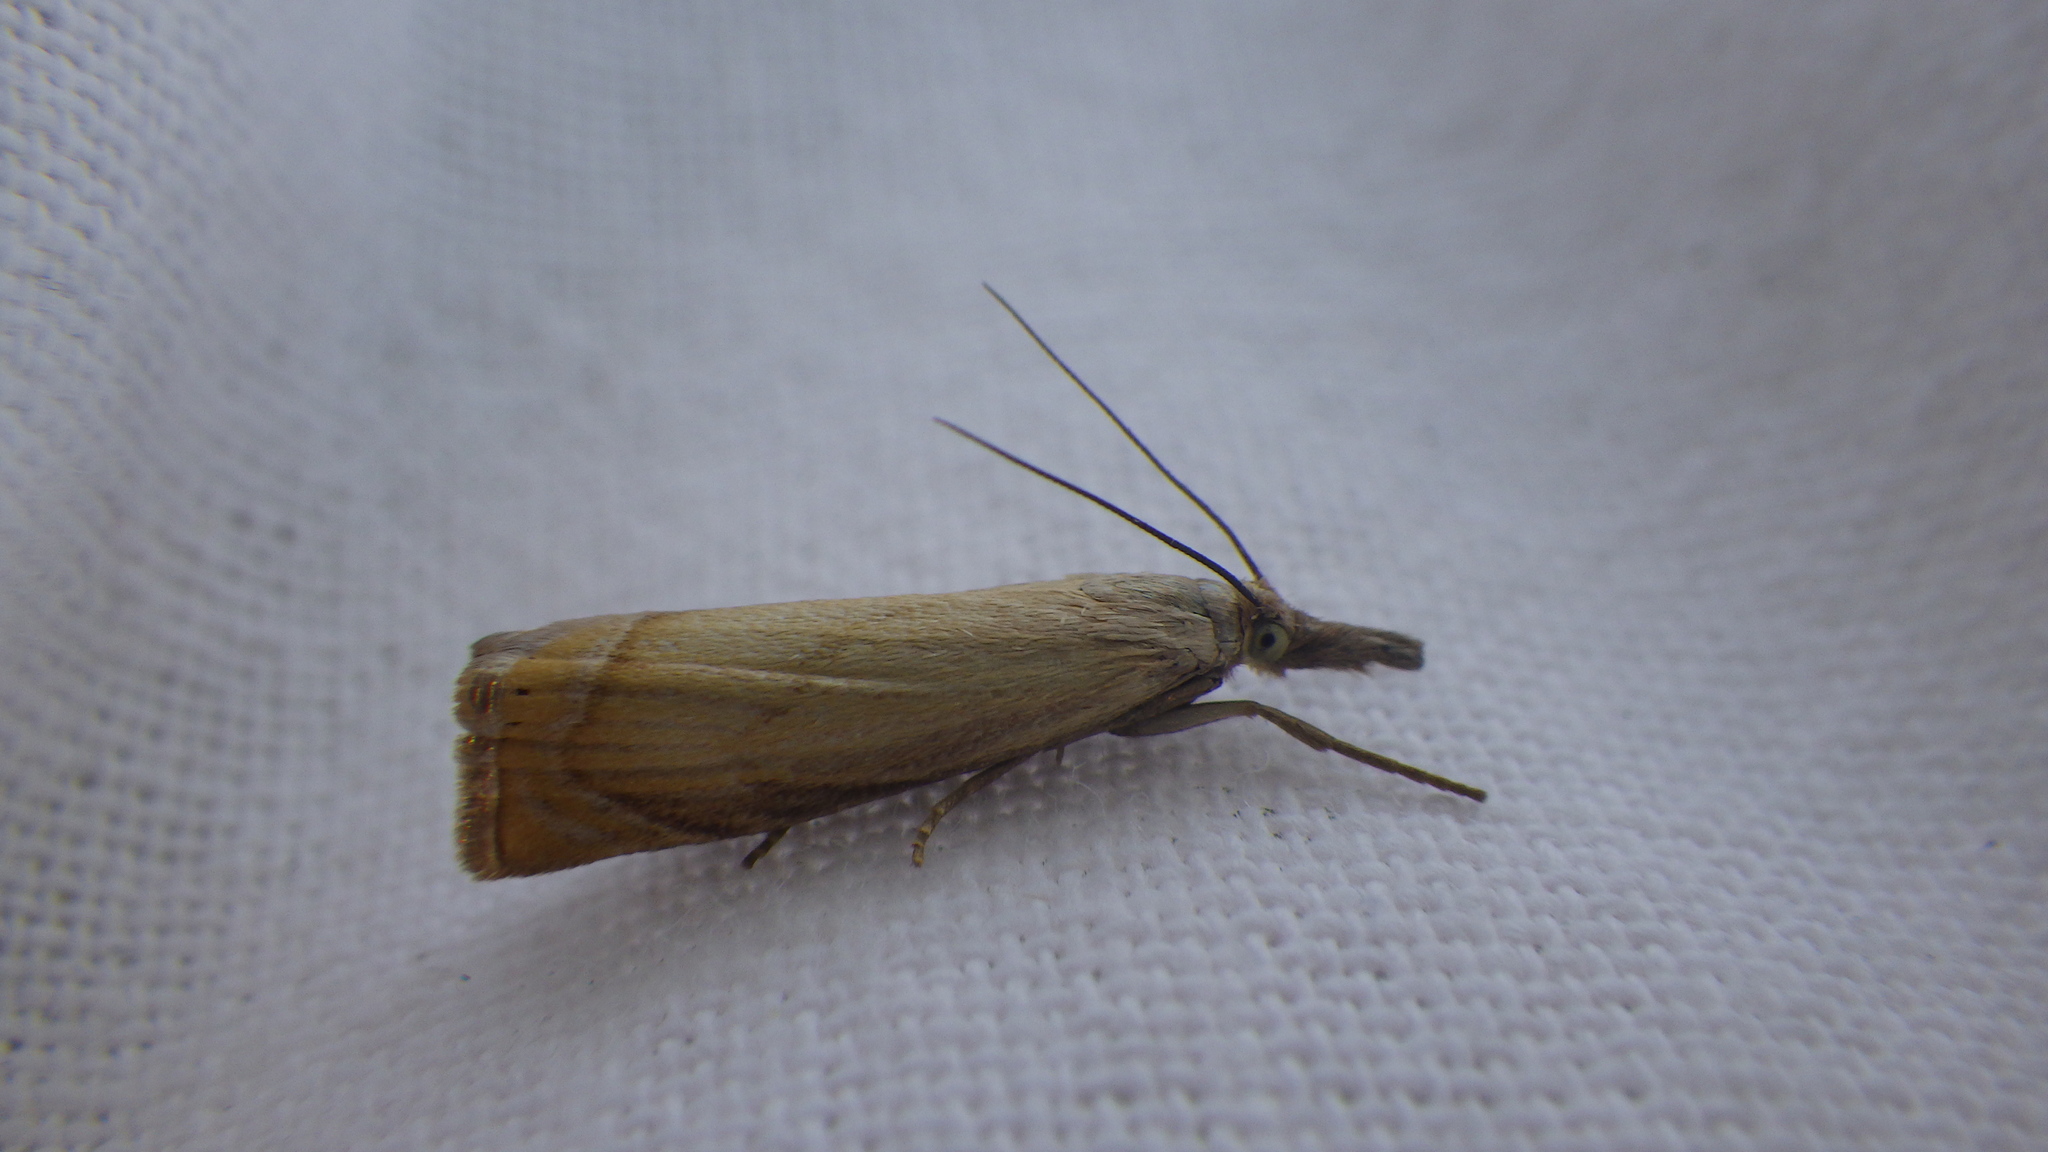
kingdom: Animalia
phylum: Arthropoda
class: Insecta
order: Lepidoptera
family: Crambidae
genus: Chrysoteuchia
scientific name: Chrysoteuchia culmella
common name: Garden grass-veneer
